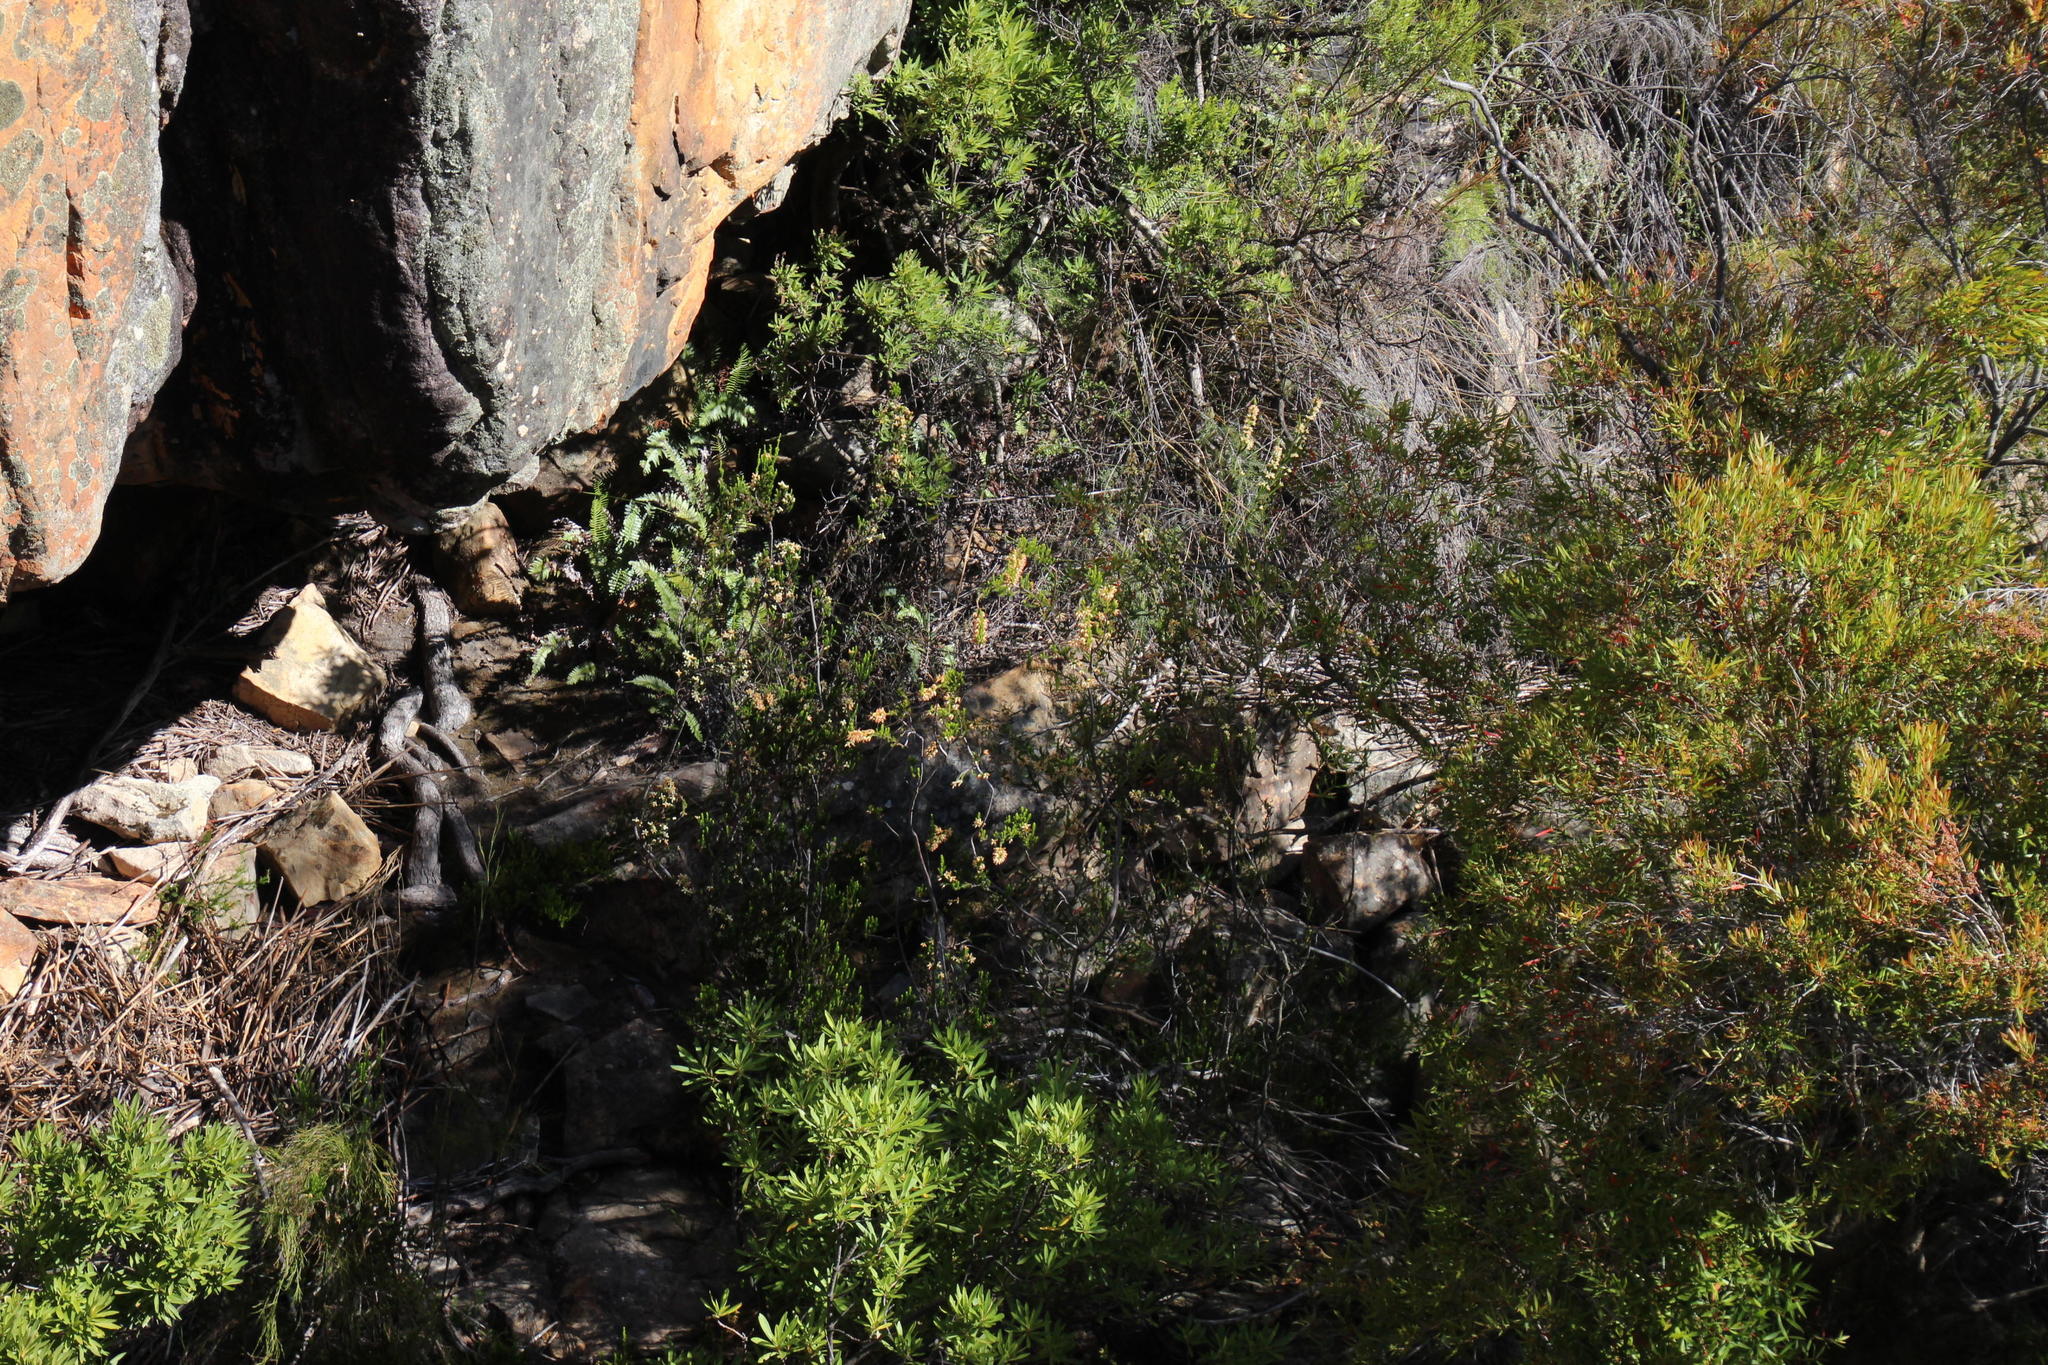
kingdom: Plantae
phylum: Tracheophyta
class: Magnoliopsida
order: Ericales
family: Ericaceae
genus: Erica
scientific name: Erica caffra
